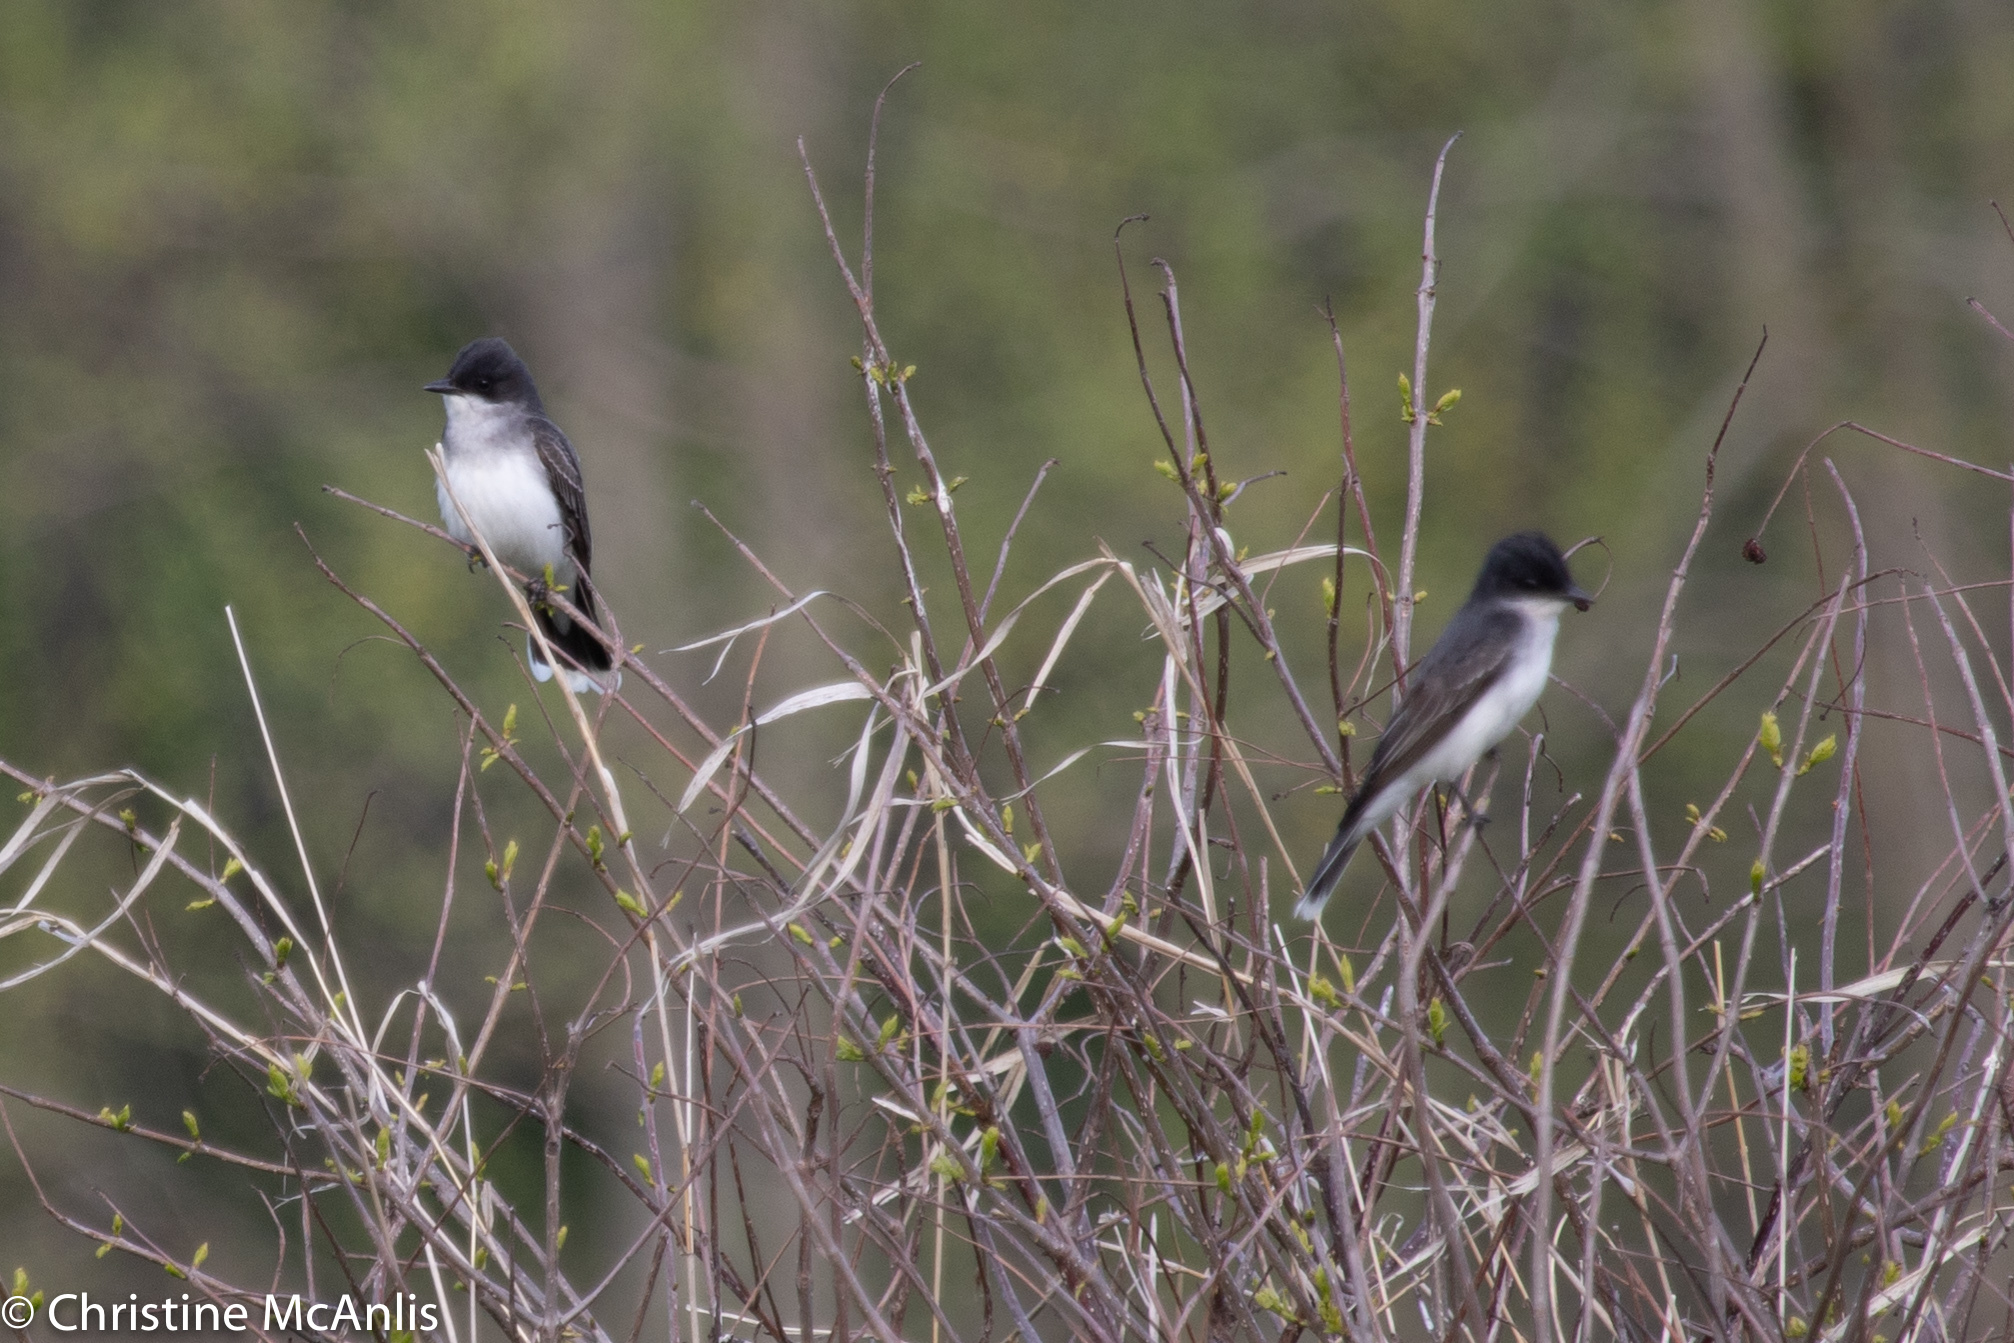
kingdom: Animalia
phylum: Chordata
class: Aves
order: Passeriformes
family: Tyrannidae
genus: Tyrannus
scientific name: Tyrannus tyrannus
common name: Eastern kingbird
